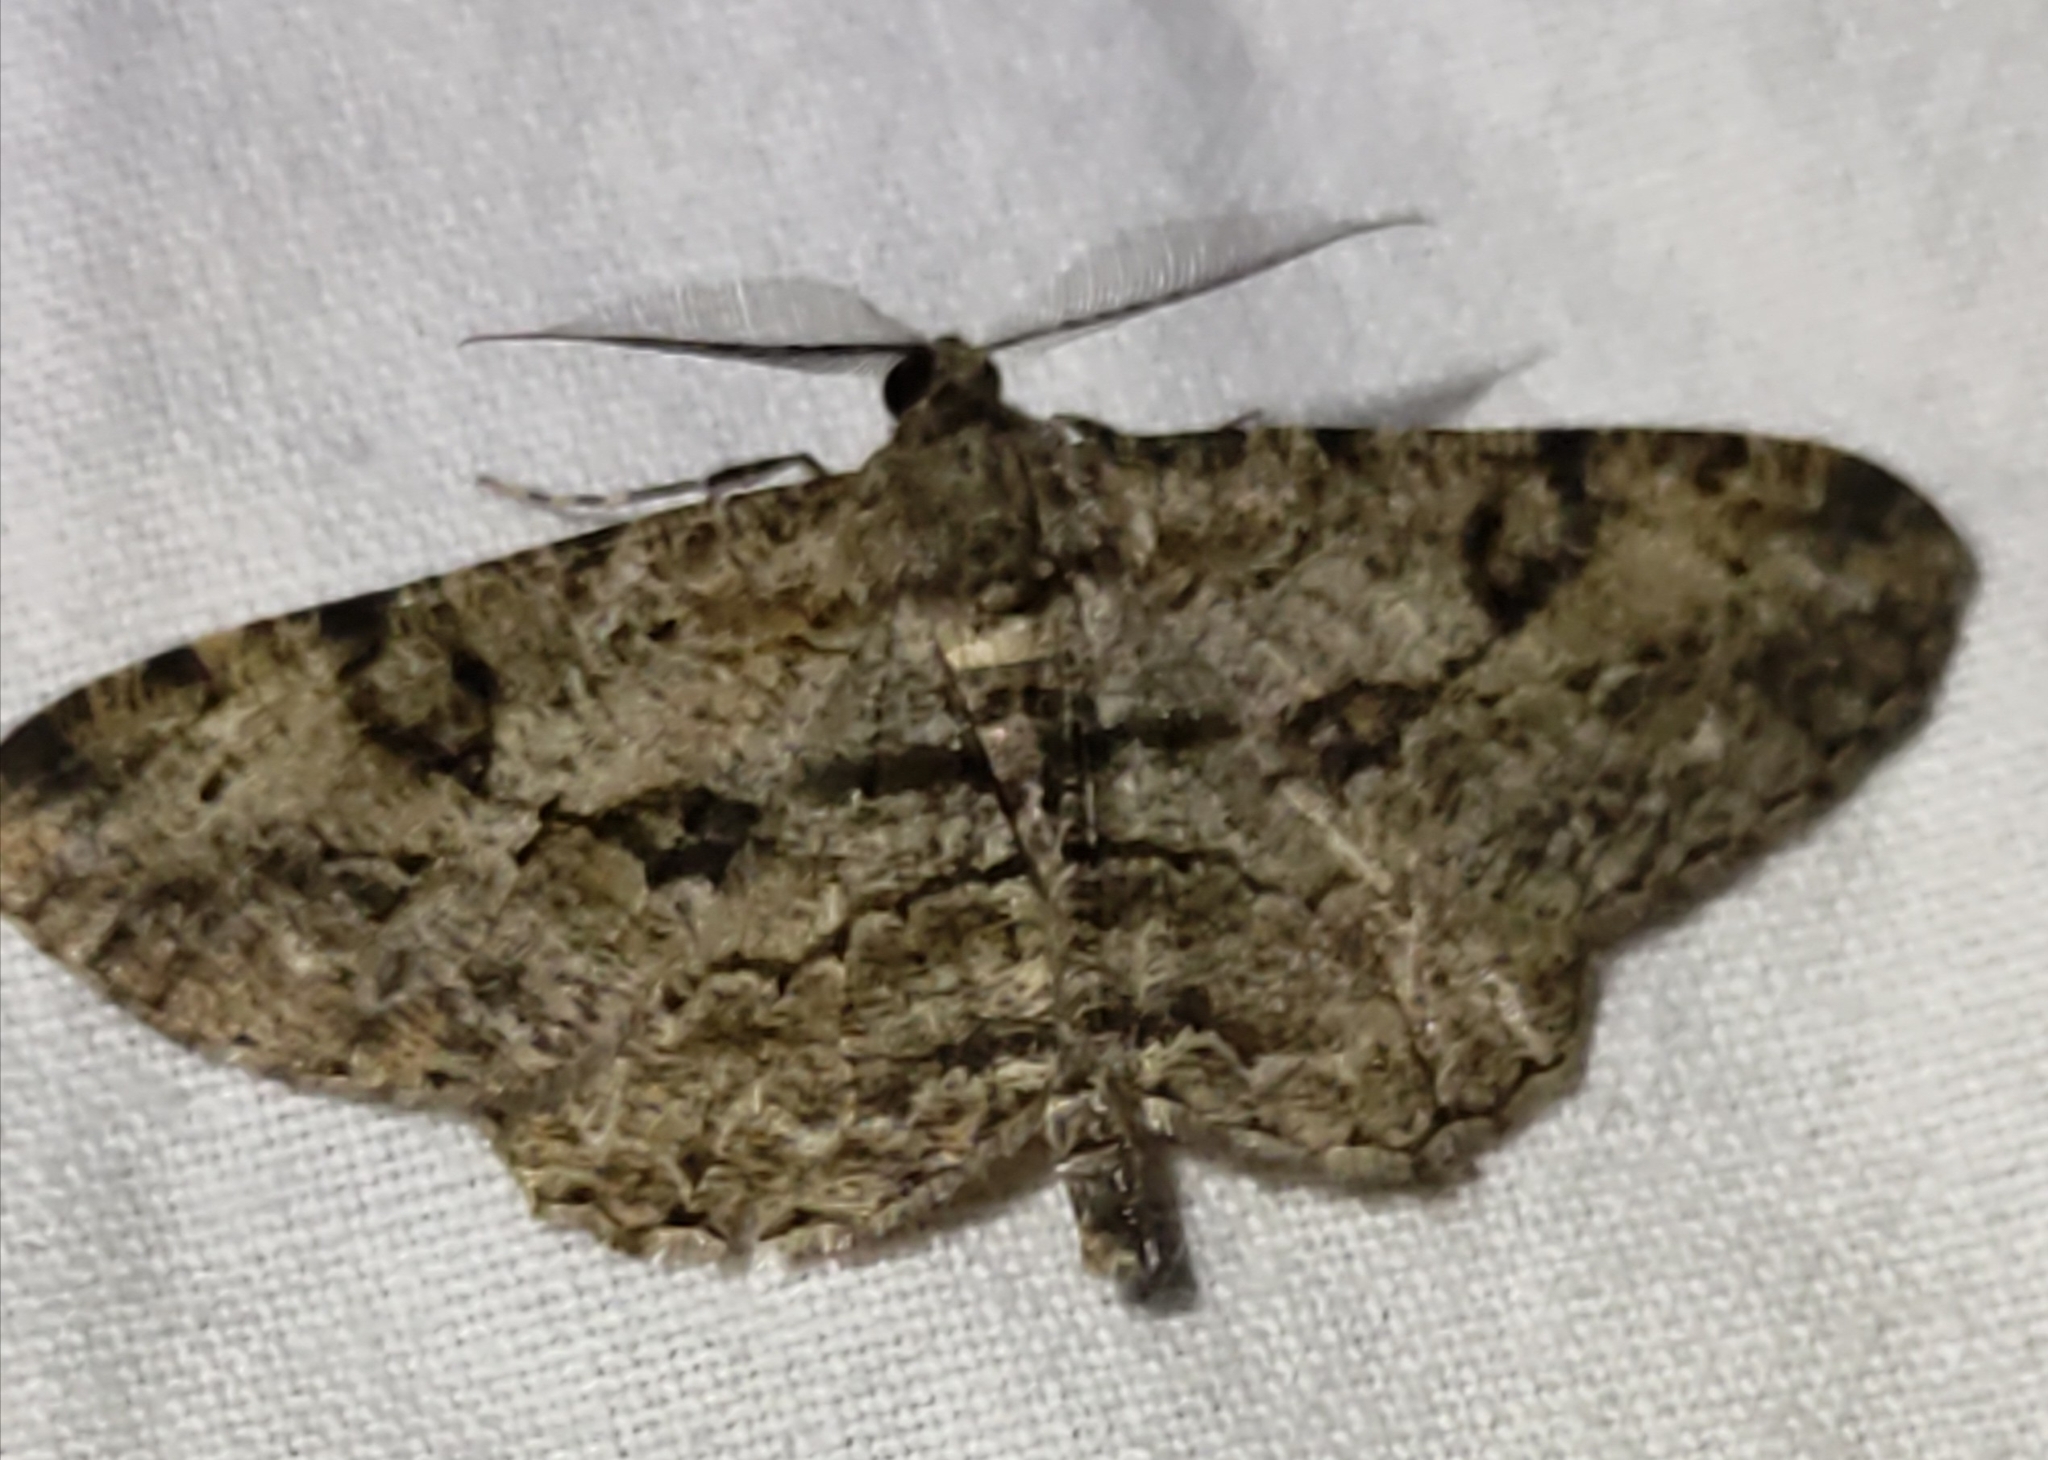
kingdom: Animalia
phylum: Arthropoda
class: Insecta
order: Lepidoptera
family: Geometridae
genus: Peribatodes
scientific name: Peribatodes rhomboidaria
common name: Willow beauty
